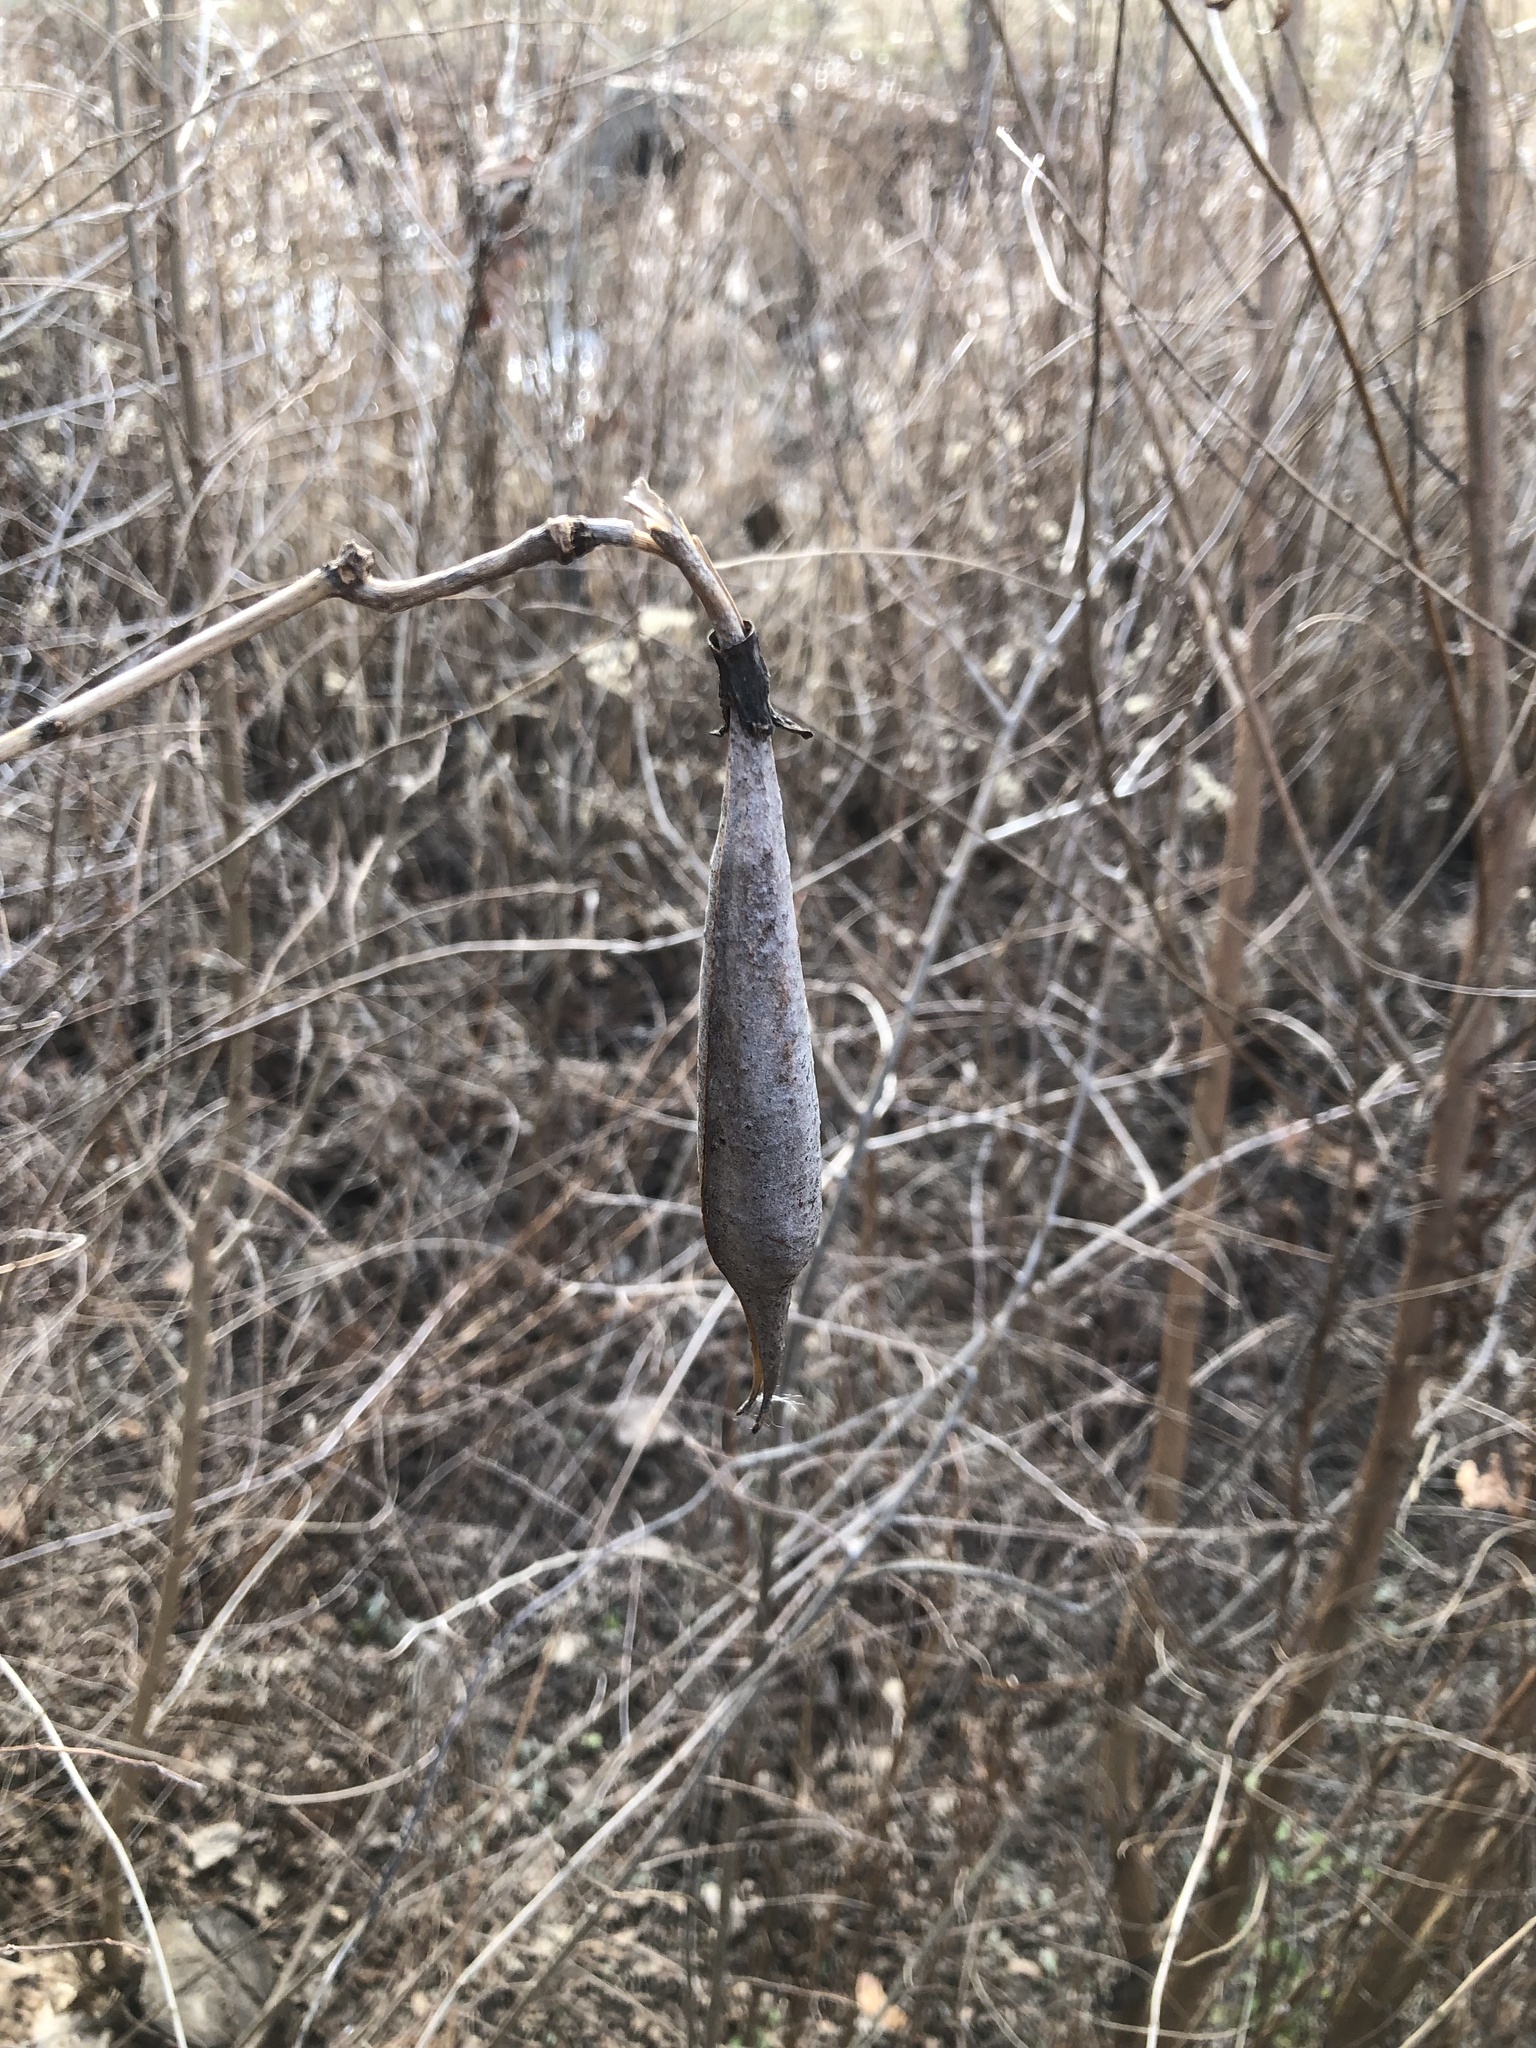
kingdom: Plantae
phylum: Tracheophyta
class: Magnoliopsida
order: Lamiales
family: Bignoniaceae
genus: Campsis
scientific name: Campsis radicans
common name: Trumpet-creeper
